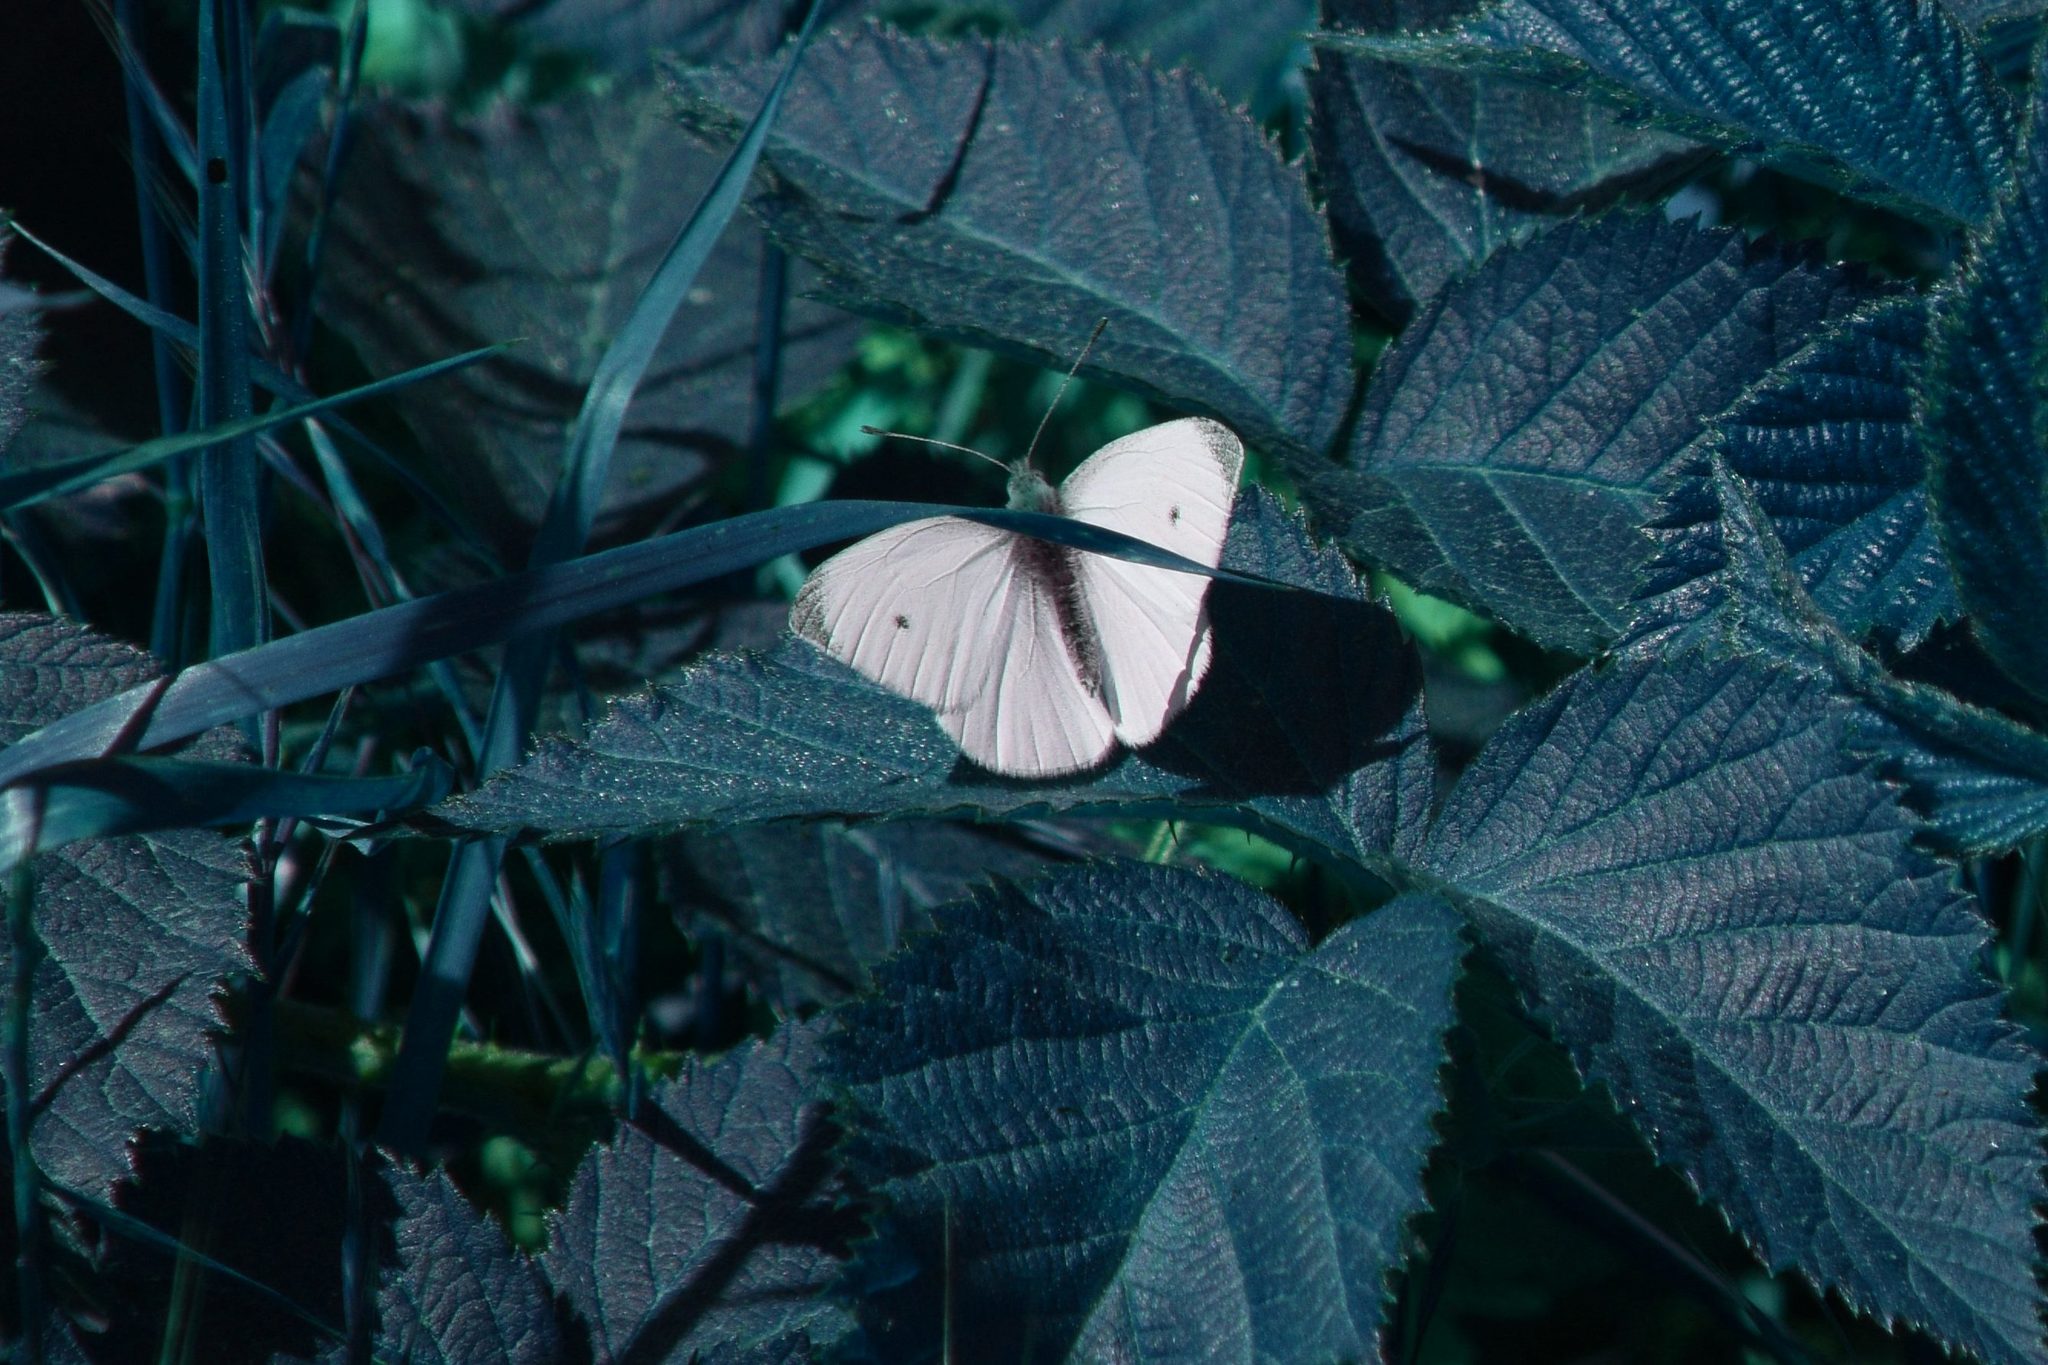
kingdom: Animalia
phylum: Arthropoda
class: Insecta
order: Lepidoptera
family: Pieridae
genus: Pieris
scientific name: Pieris rapae
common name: Small white
